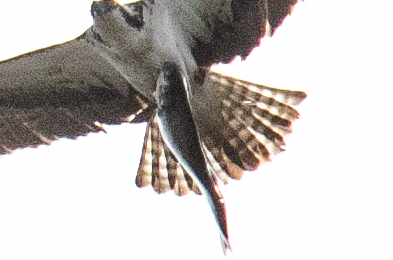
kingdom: Animalia
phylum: Chordata
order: Clupeiformes
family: Clupeidae
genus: Dorosoma
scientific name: Dorosoma cepedianum
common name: Gizzard shad
